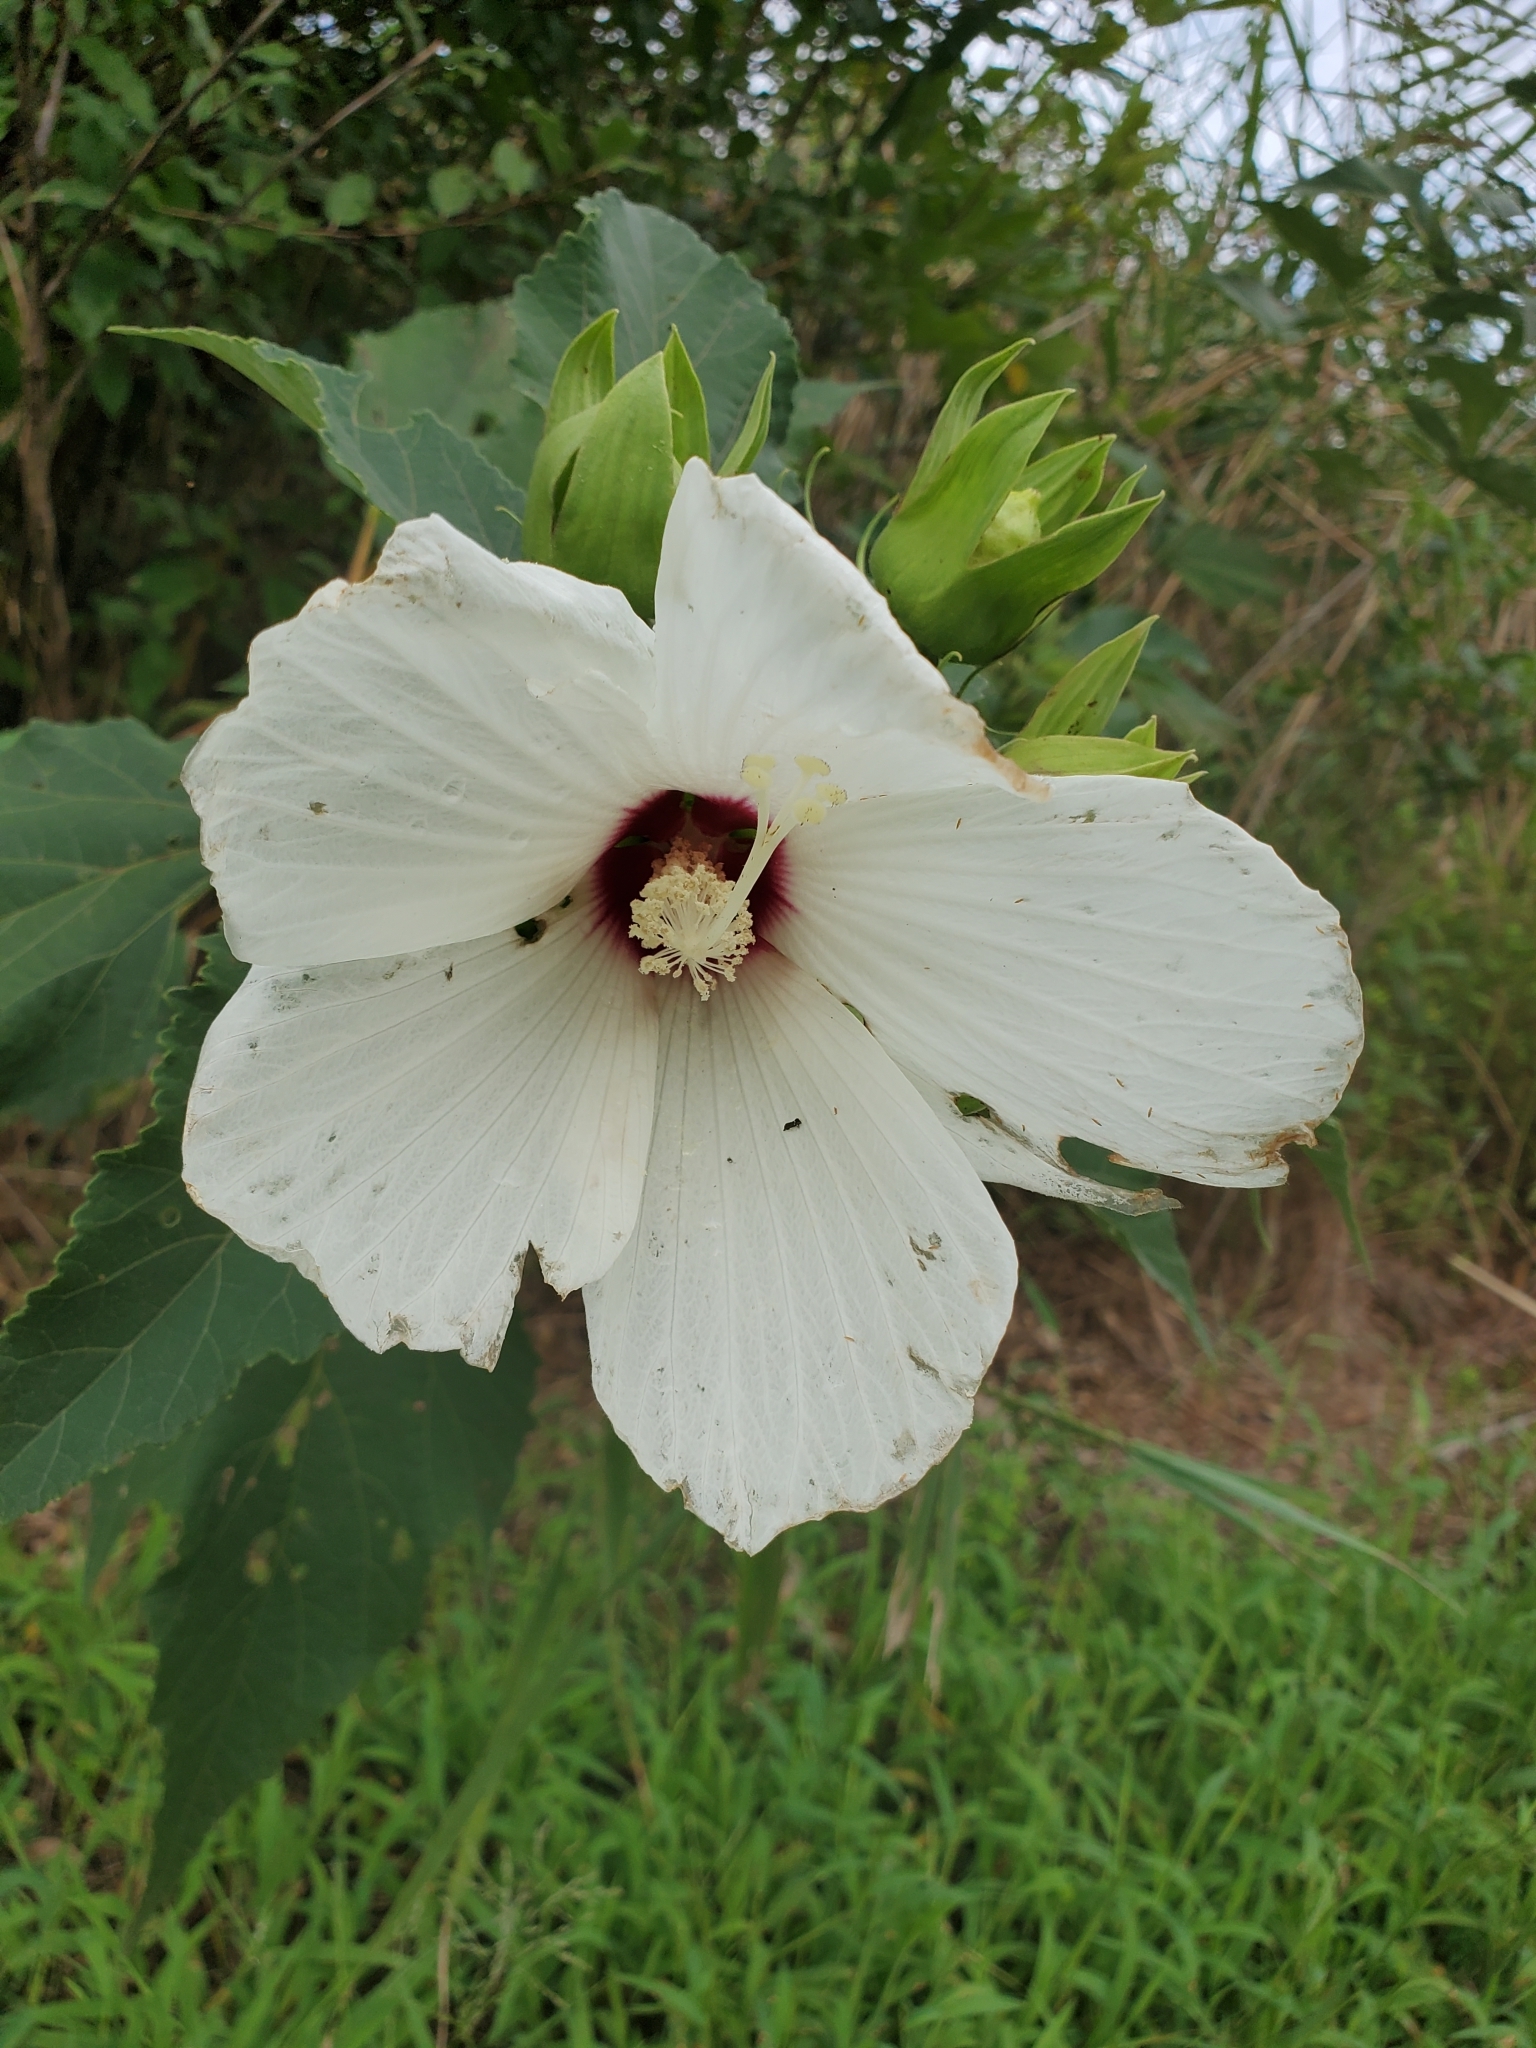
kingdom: Plantae
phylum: Tracheophyta
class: Magnoliopsida
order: Malvales
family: Malvaceae
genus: Hibiscus
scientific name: Hibiscus moscheutos
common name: Common rose-mallow
